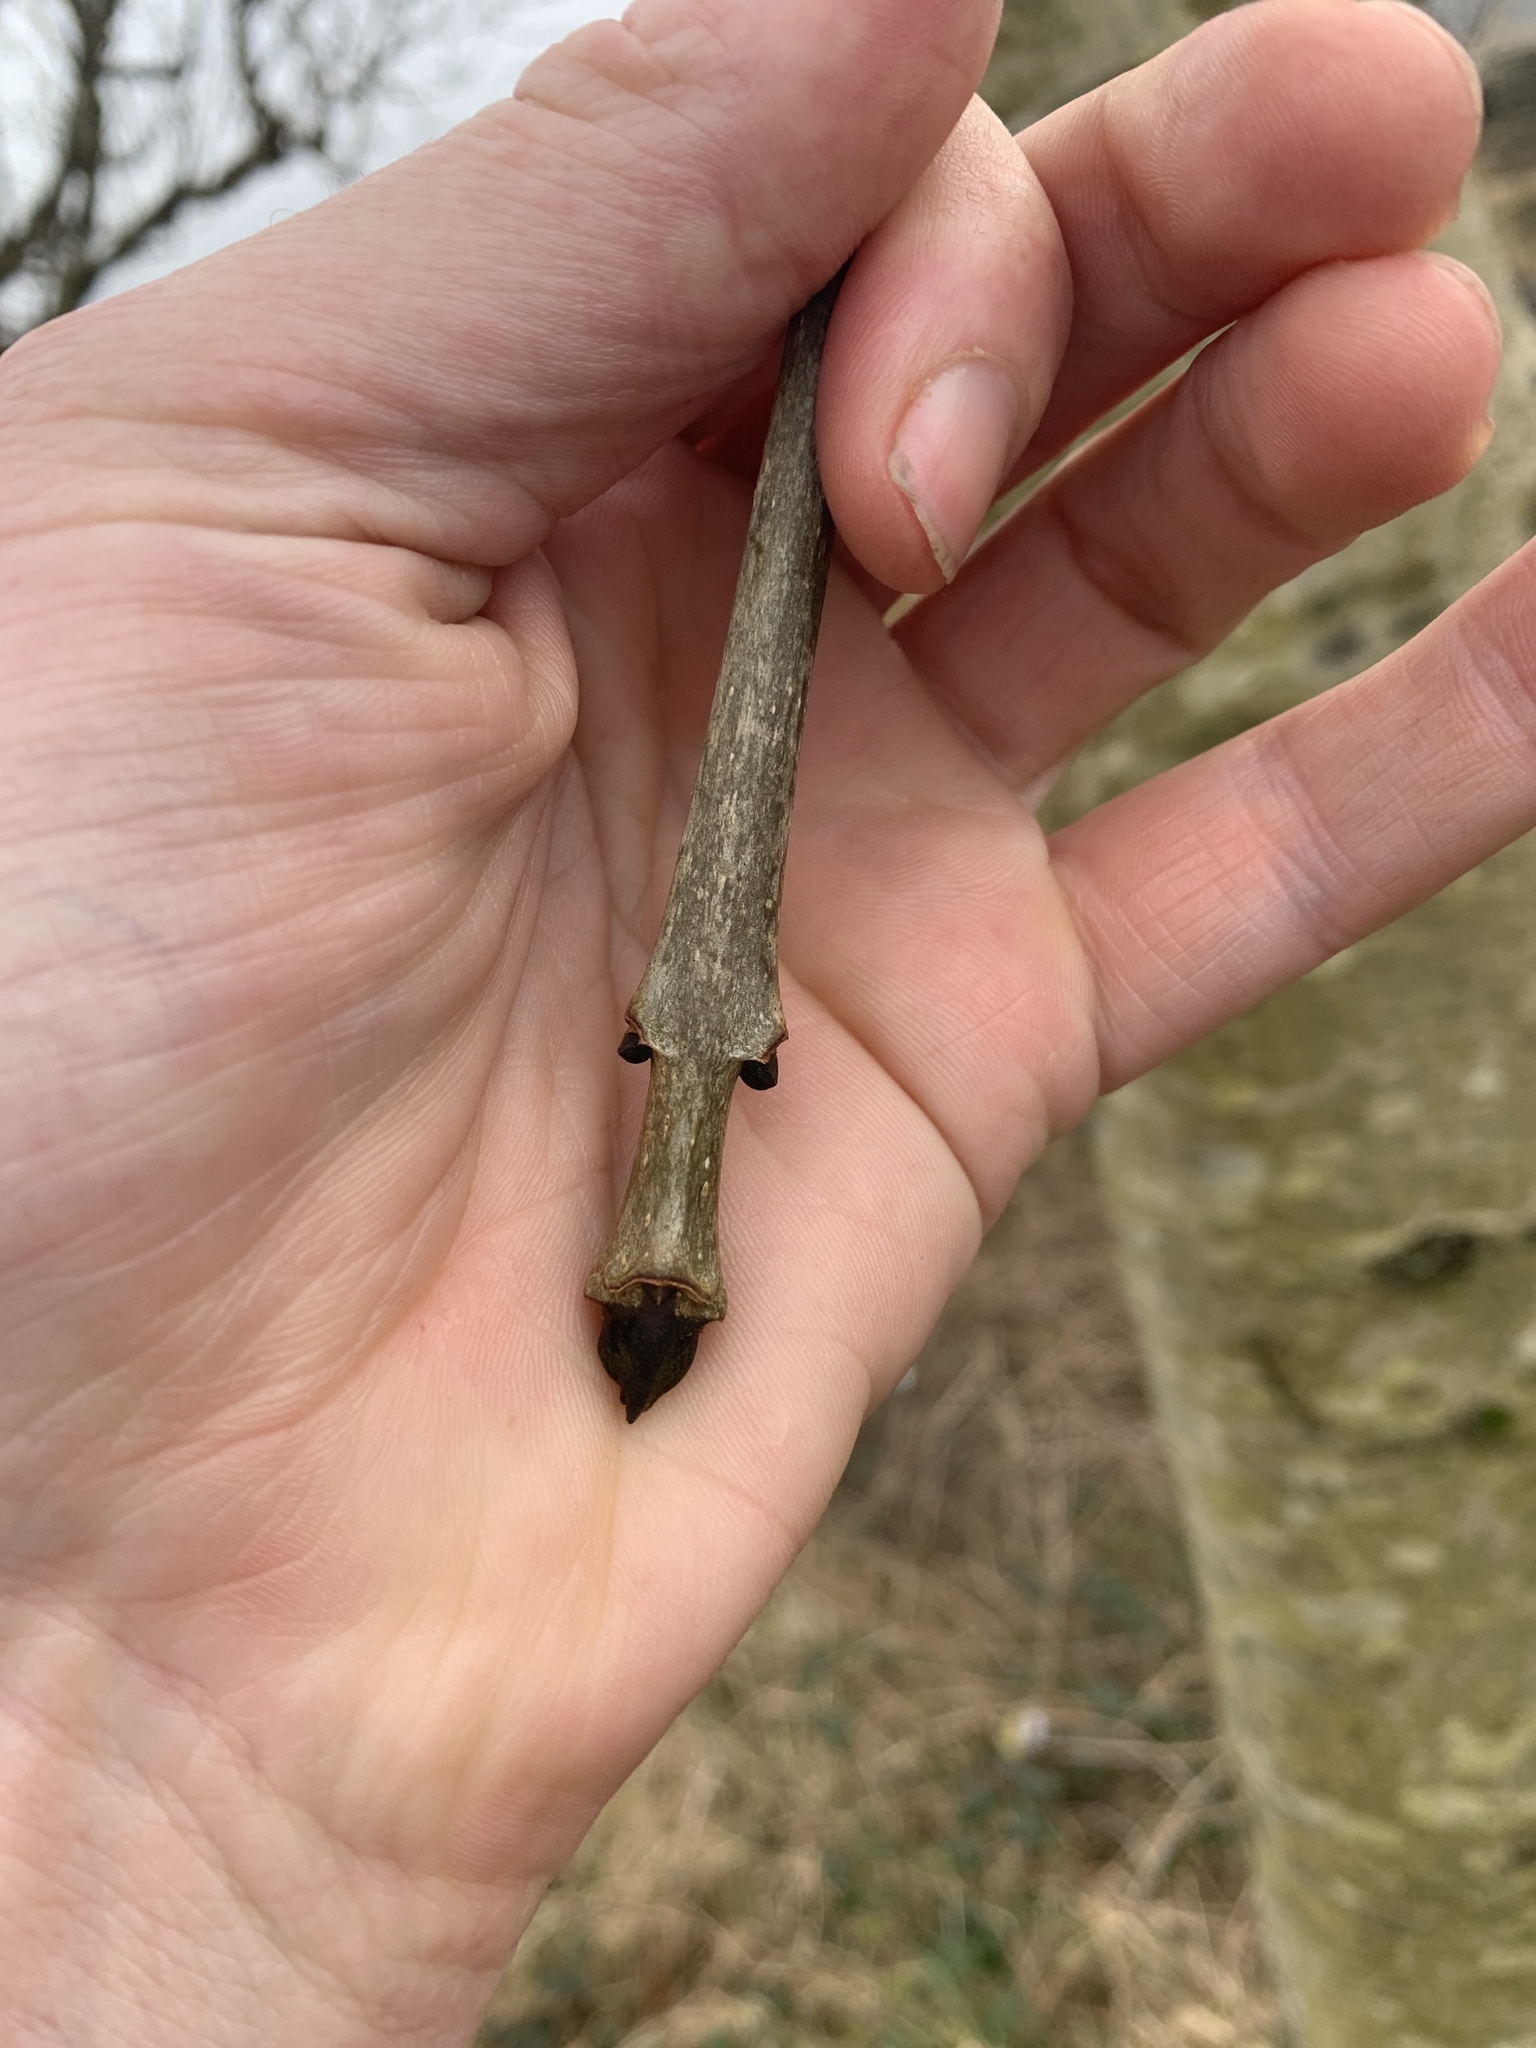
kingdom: Plantae
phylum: Tracheophyta
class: Magnoliopsida
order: Lamiales
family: Oleaceae
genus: Fraxinus
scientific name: Fraxinus excelsior
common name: European ash
